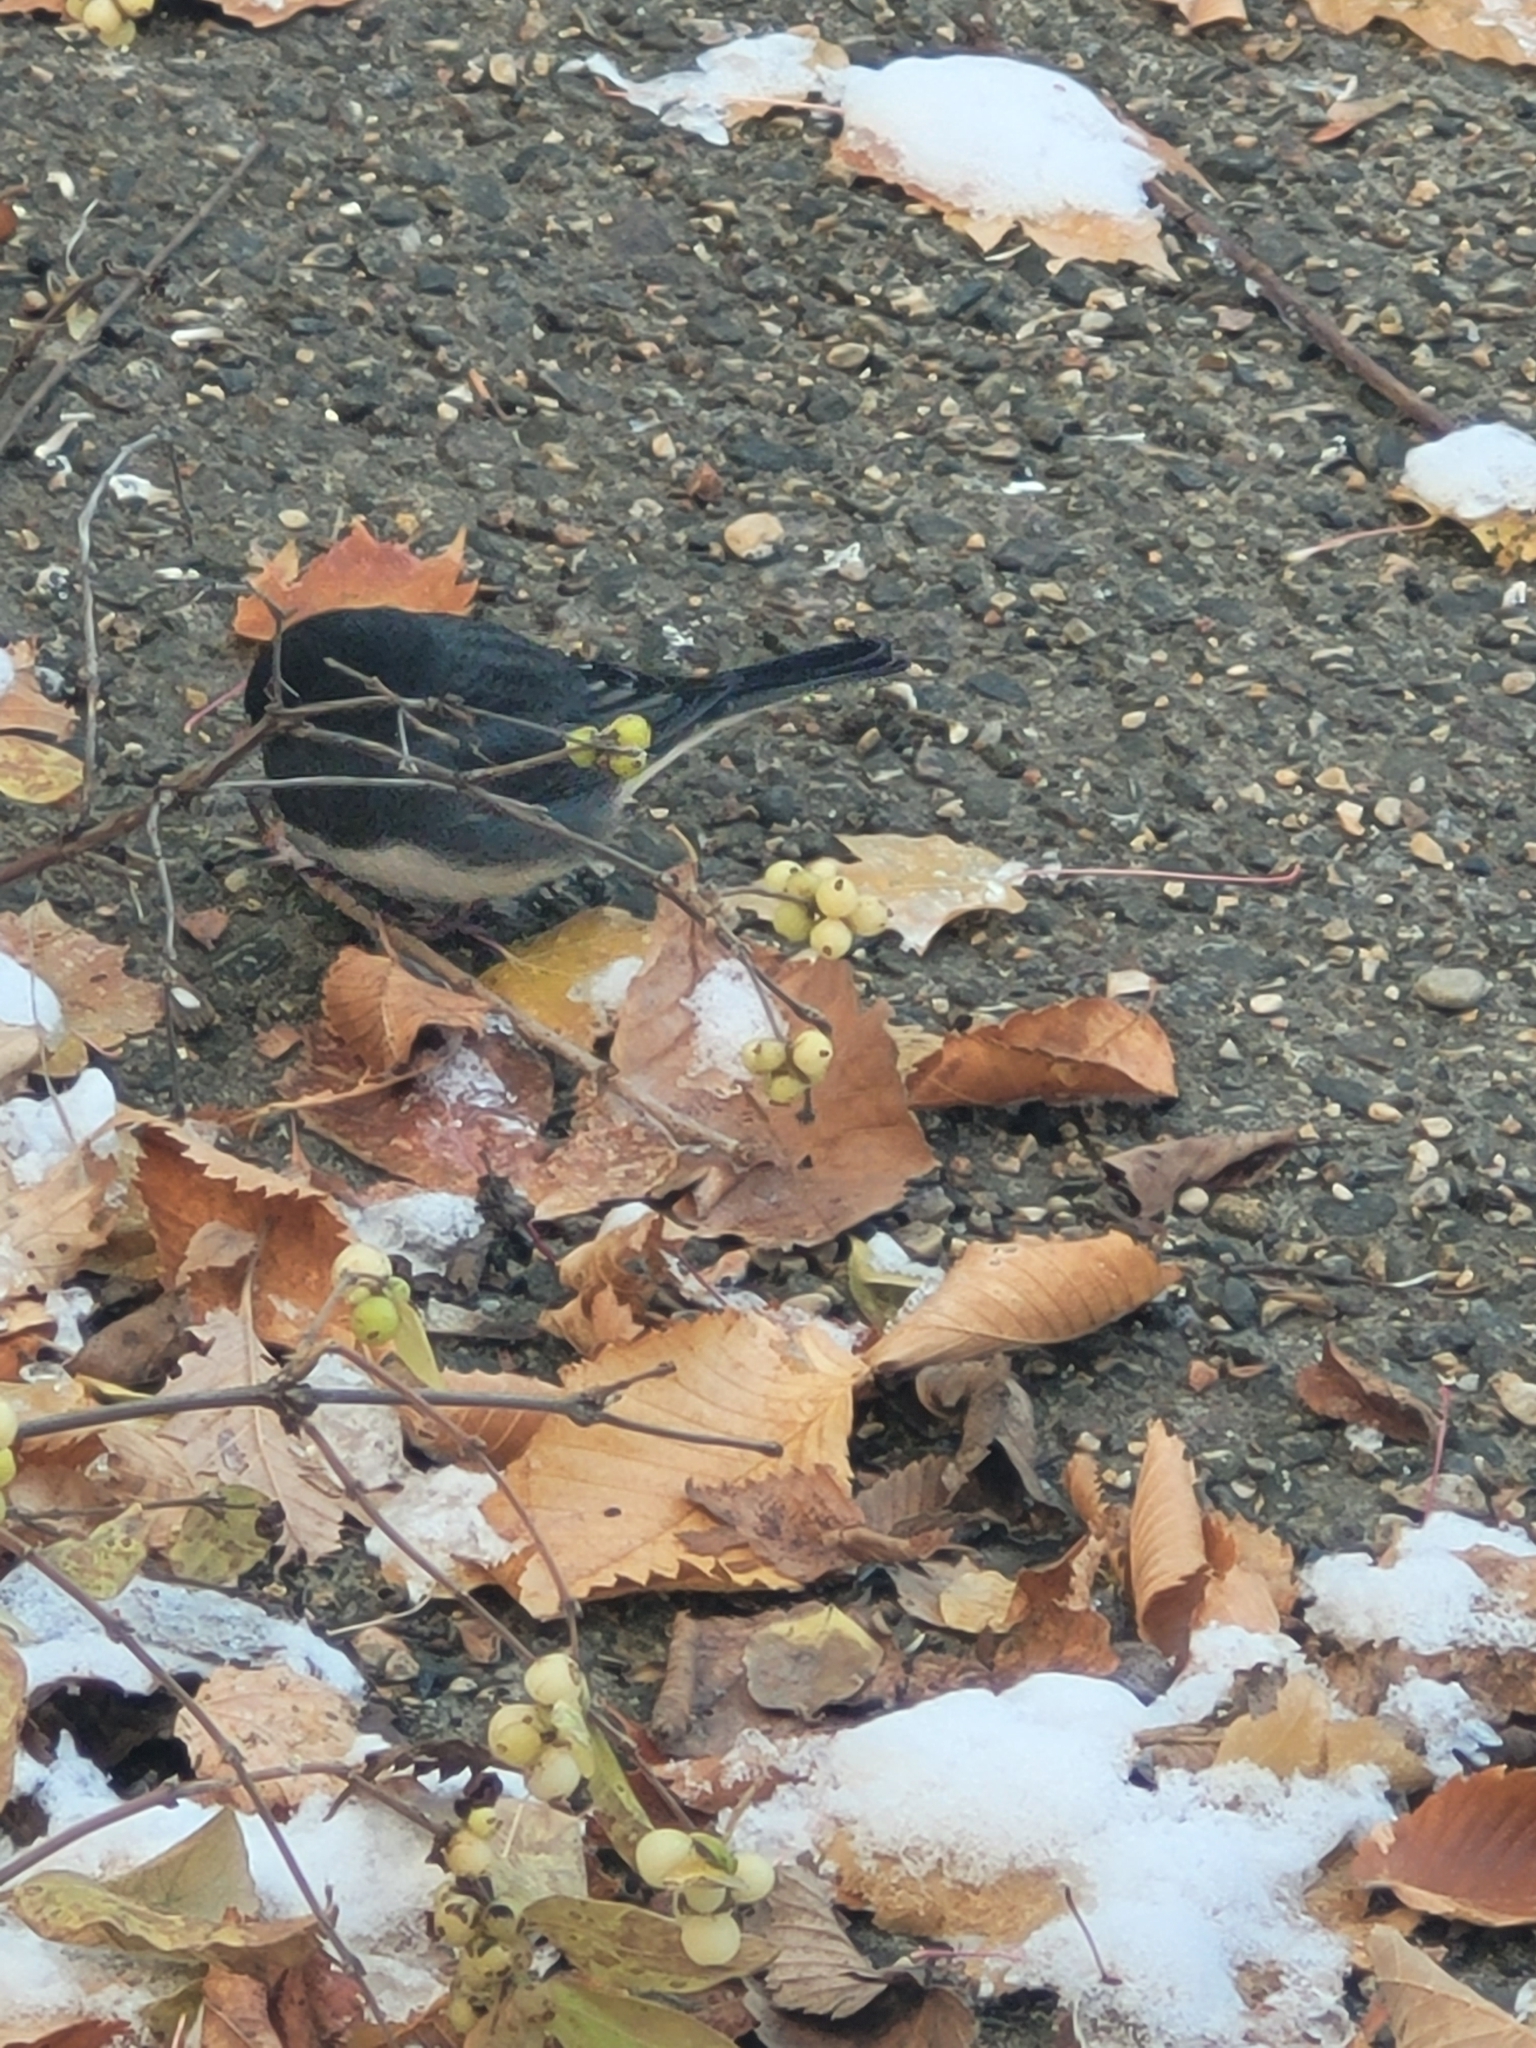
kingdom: Animalia
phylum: Chordata
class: Aves
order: Passeriformes
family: Passerellidae
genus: Junco
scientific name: Junco hyemalis
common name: Dark-eyed junco
